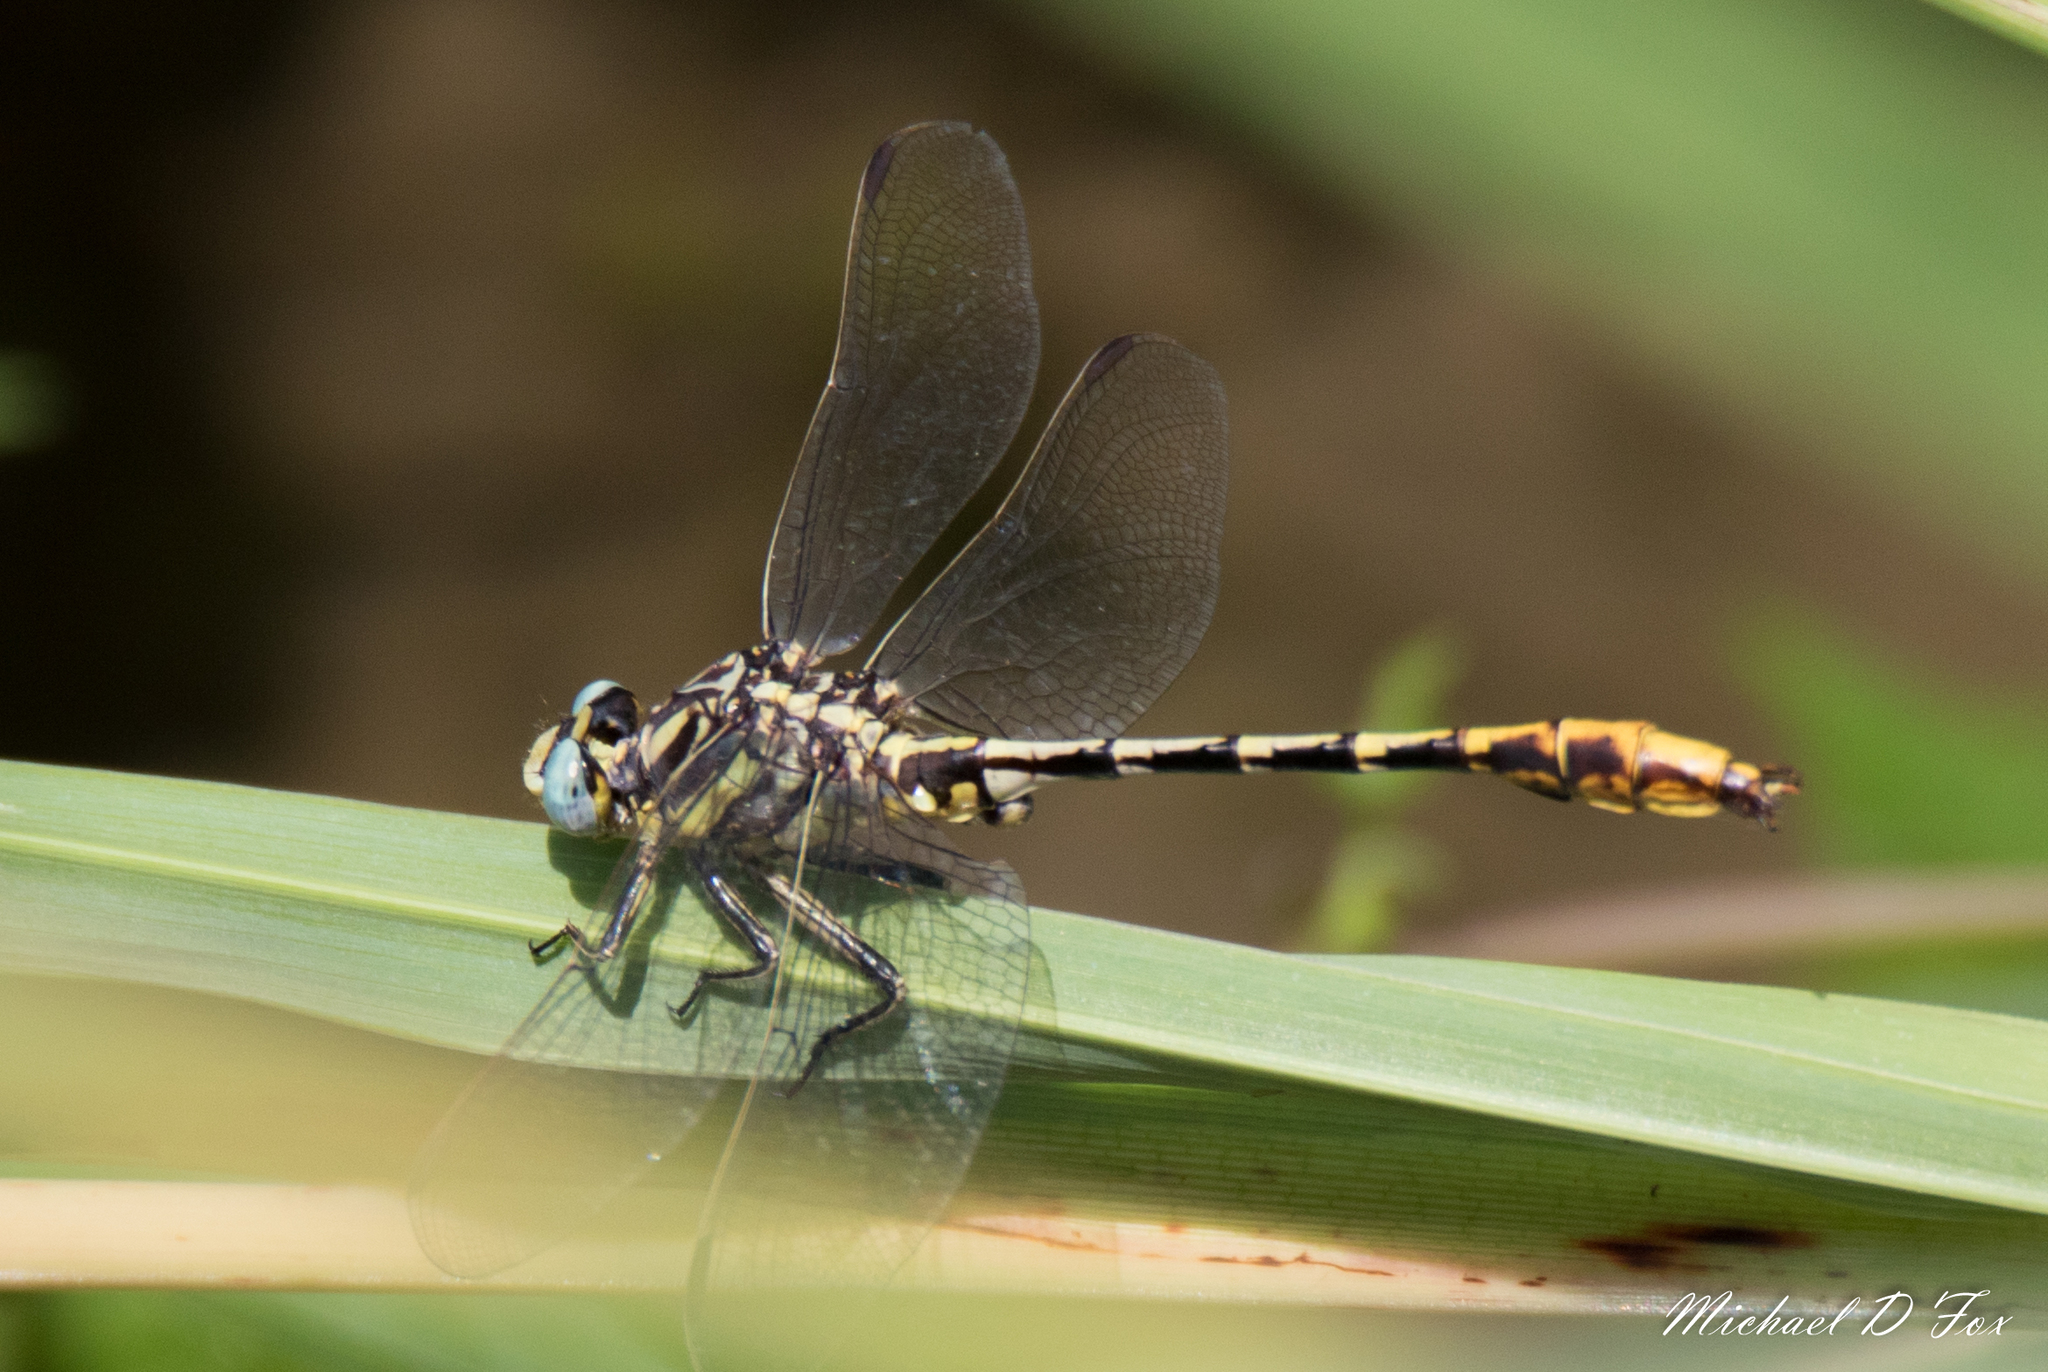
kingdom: Animalia
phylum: Arthropoda
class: Insecta
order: Odonata
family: Gomphidae
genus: Phanogomphus
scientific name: Phanogomphus militaris
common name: Sulphur-tipped clubtail
